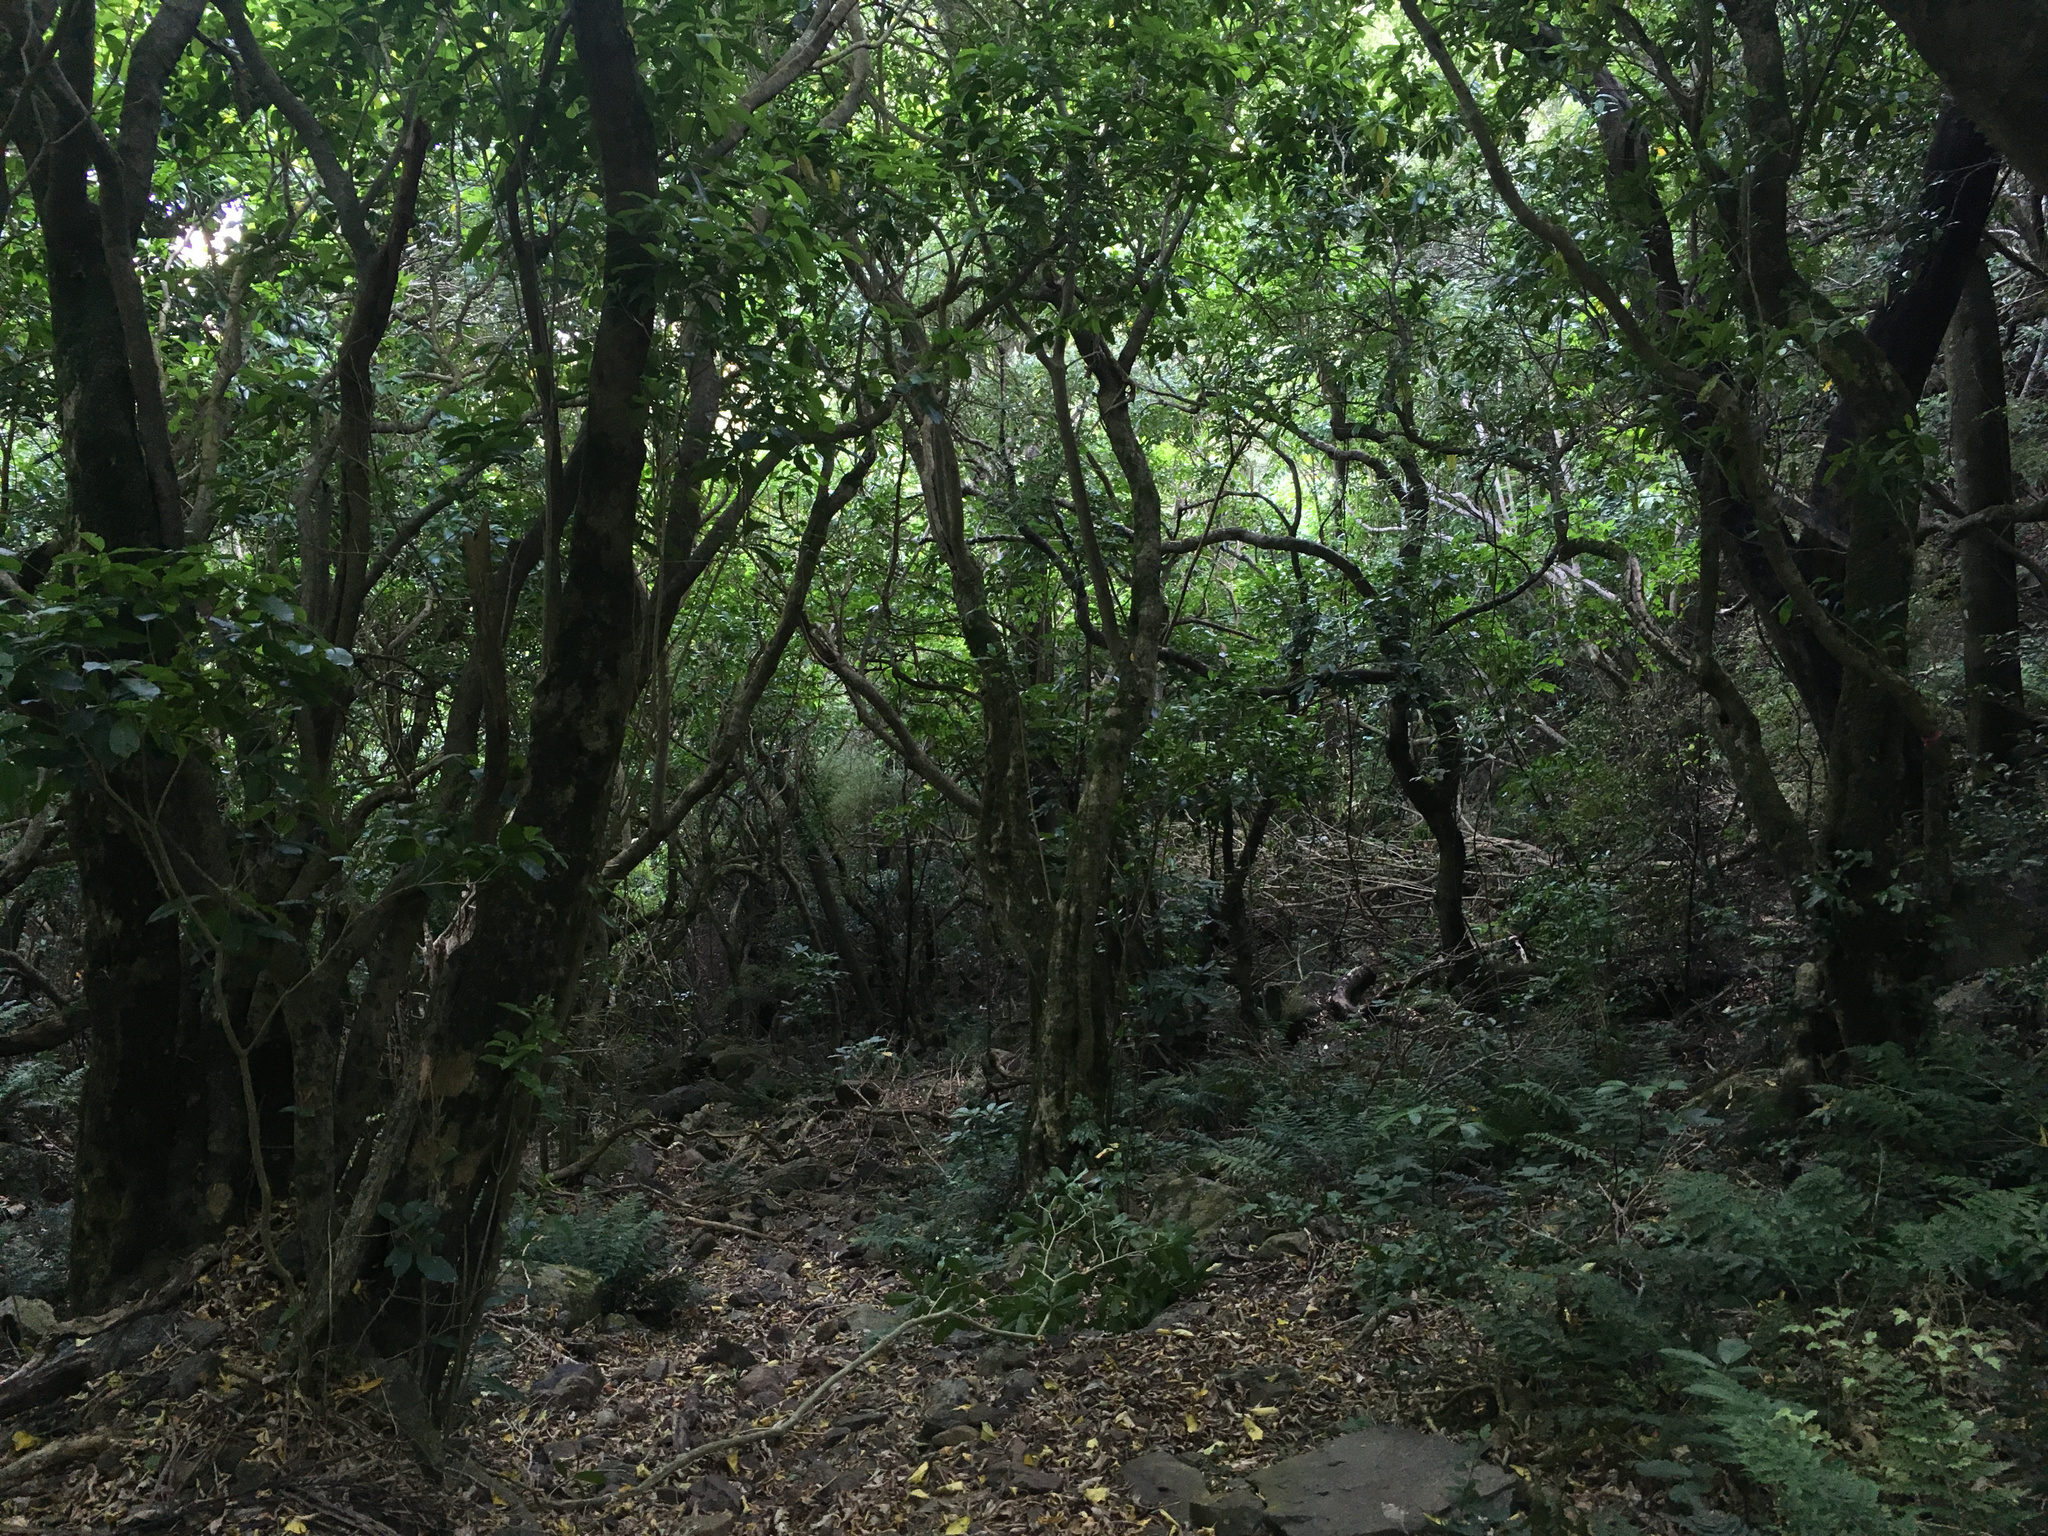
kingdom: Plantae
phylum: Tracheophyta
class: Magnoliopsida
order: Malpighiales
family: Violaceae
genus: Melicytus
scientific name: Melicytus ramiflorus
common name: Mahoe
